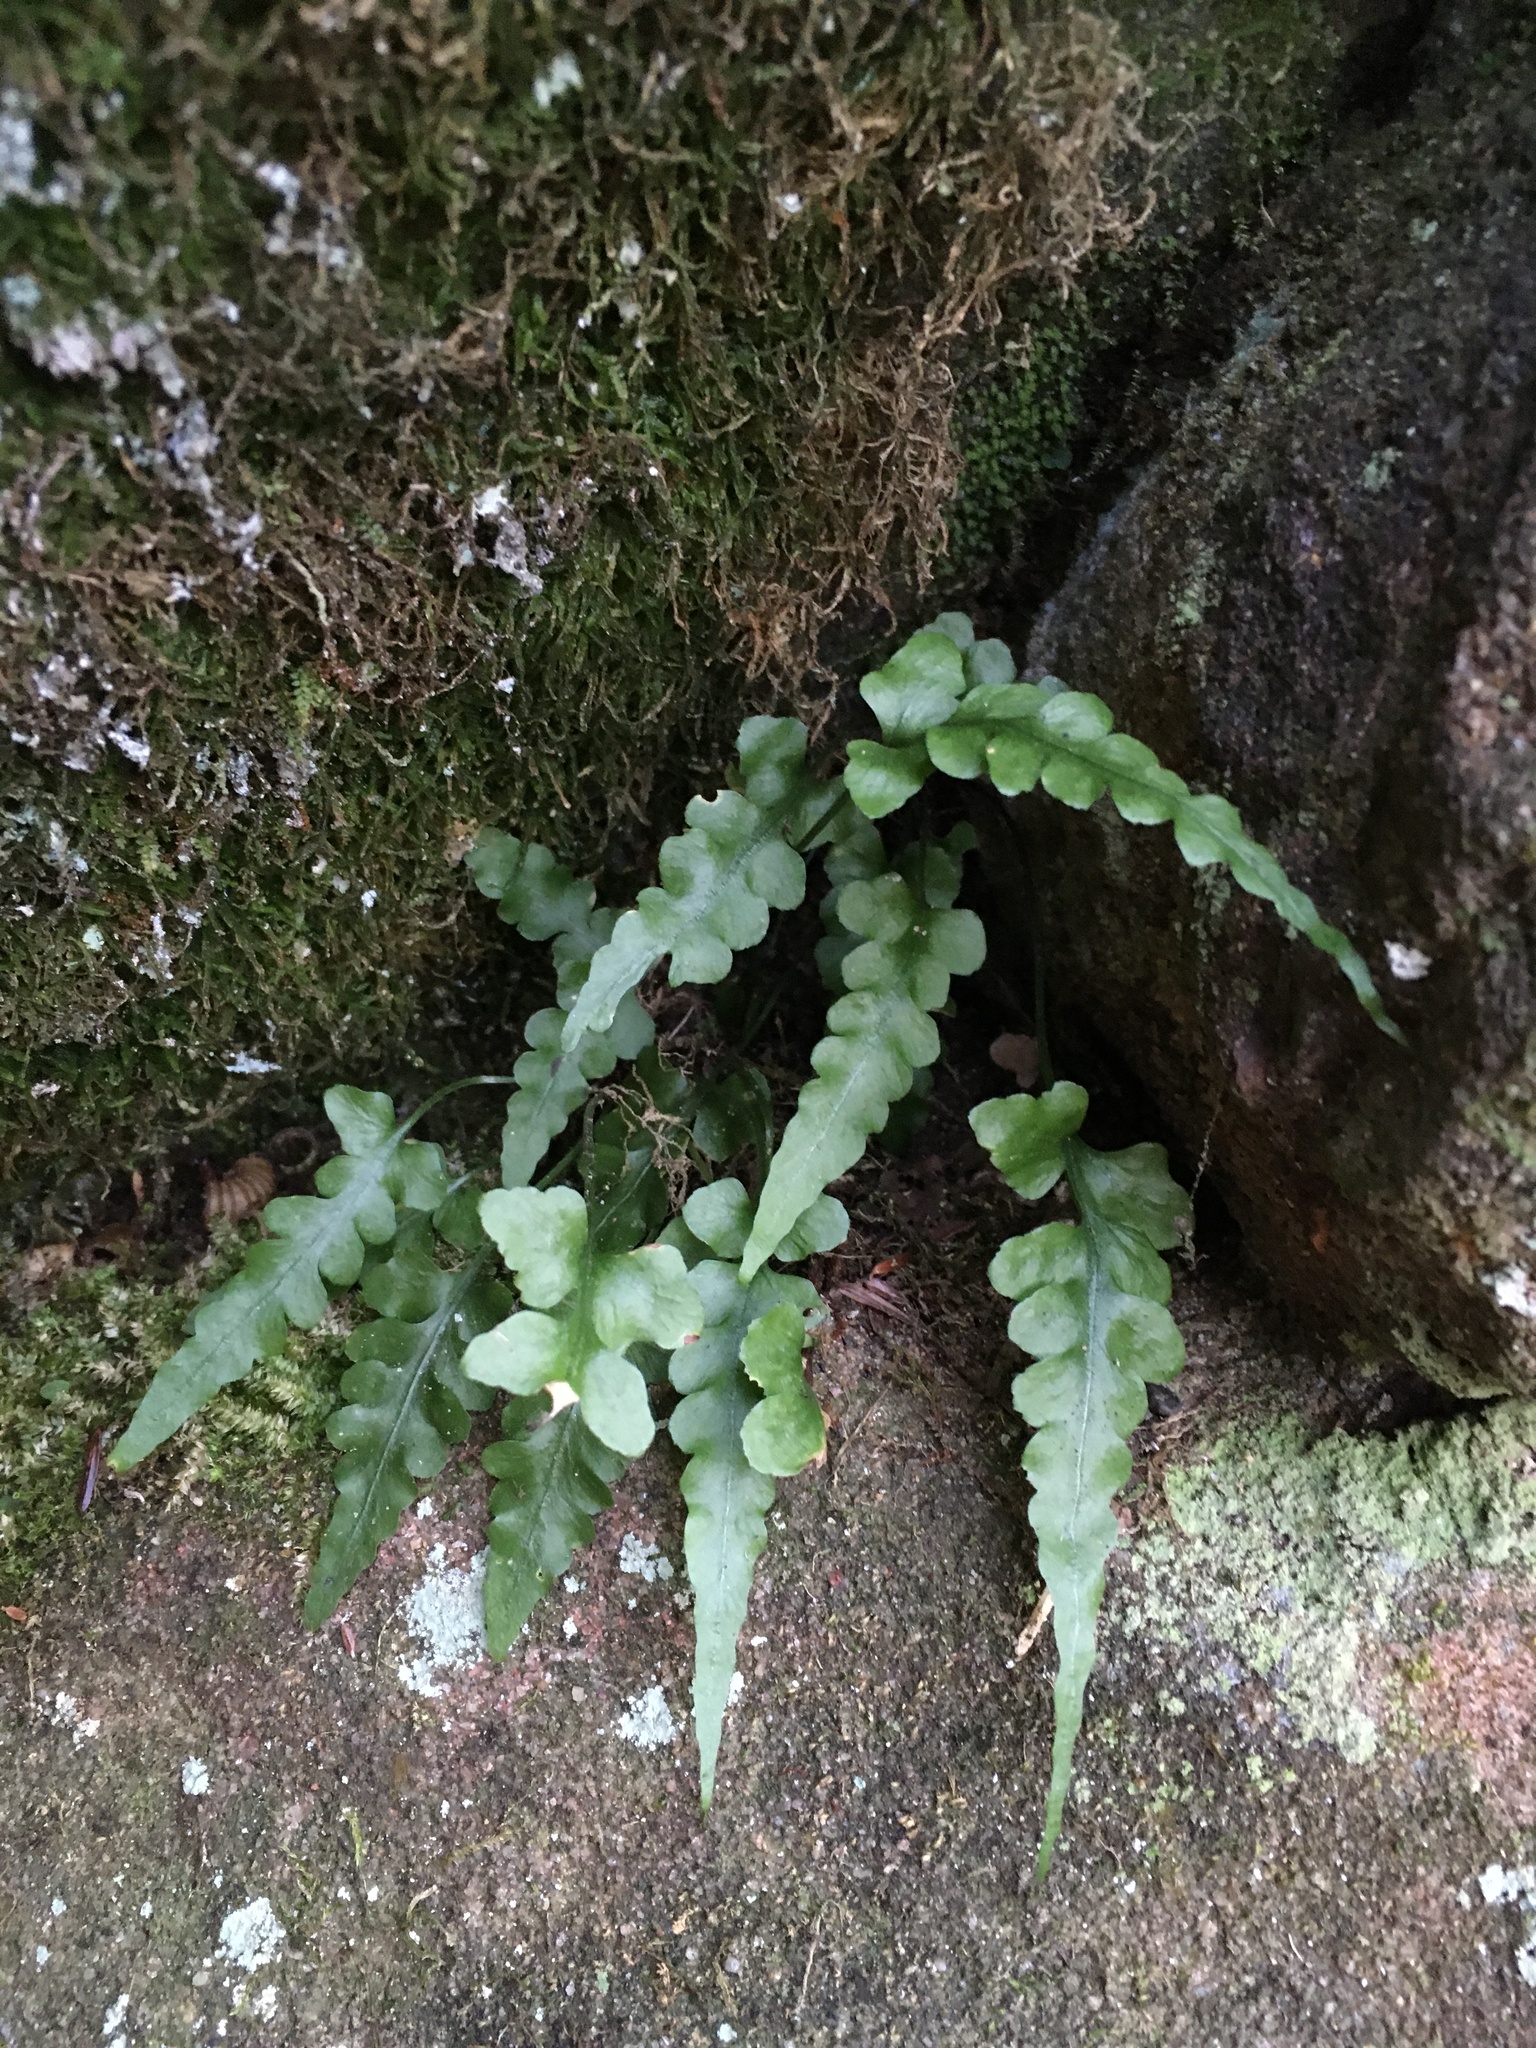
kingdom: Plantae
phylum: Tracheophyta
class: Polypodiopsida
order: Polypodiales
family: Aspleniaceae
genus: Asplenium
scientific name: Asplenium pinnatifidum
